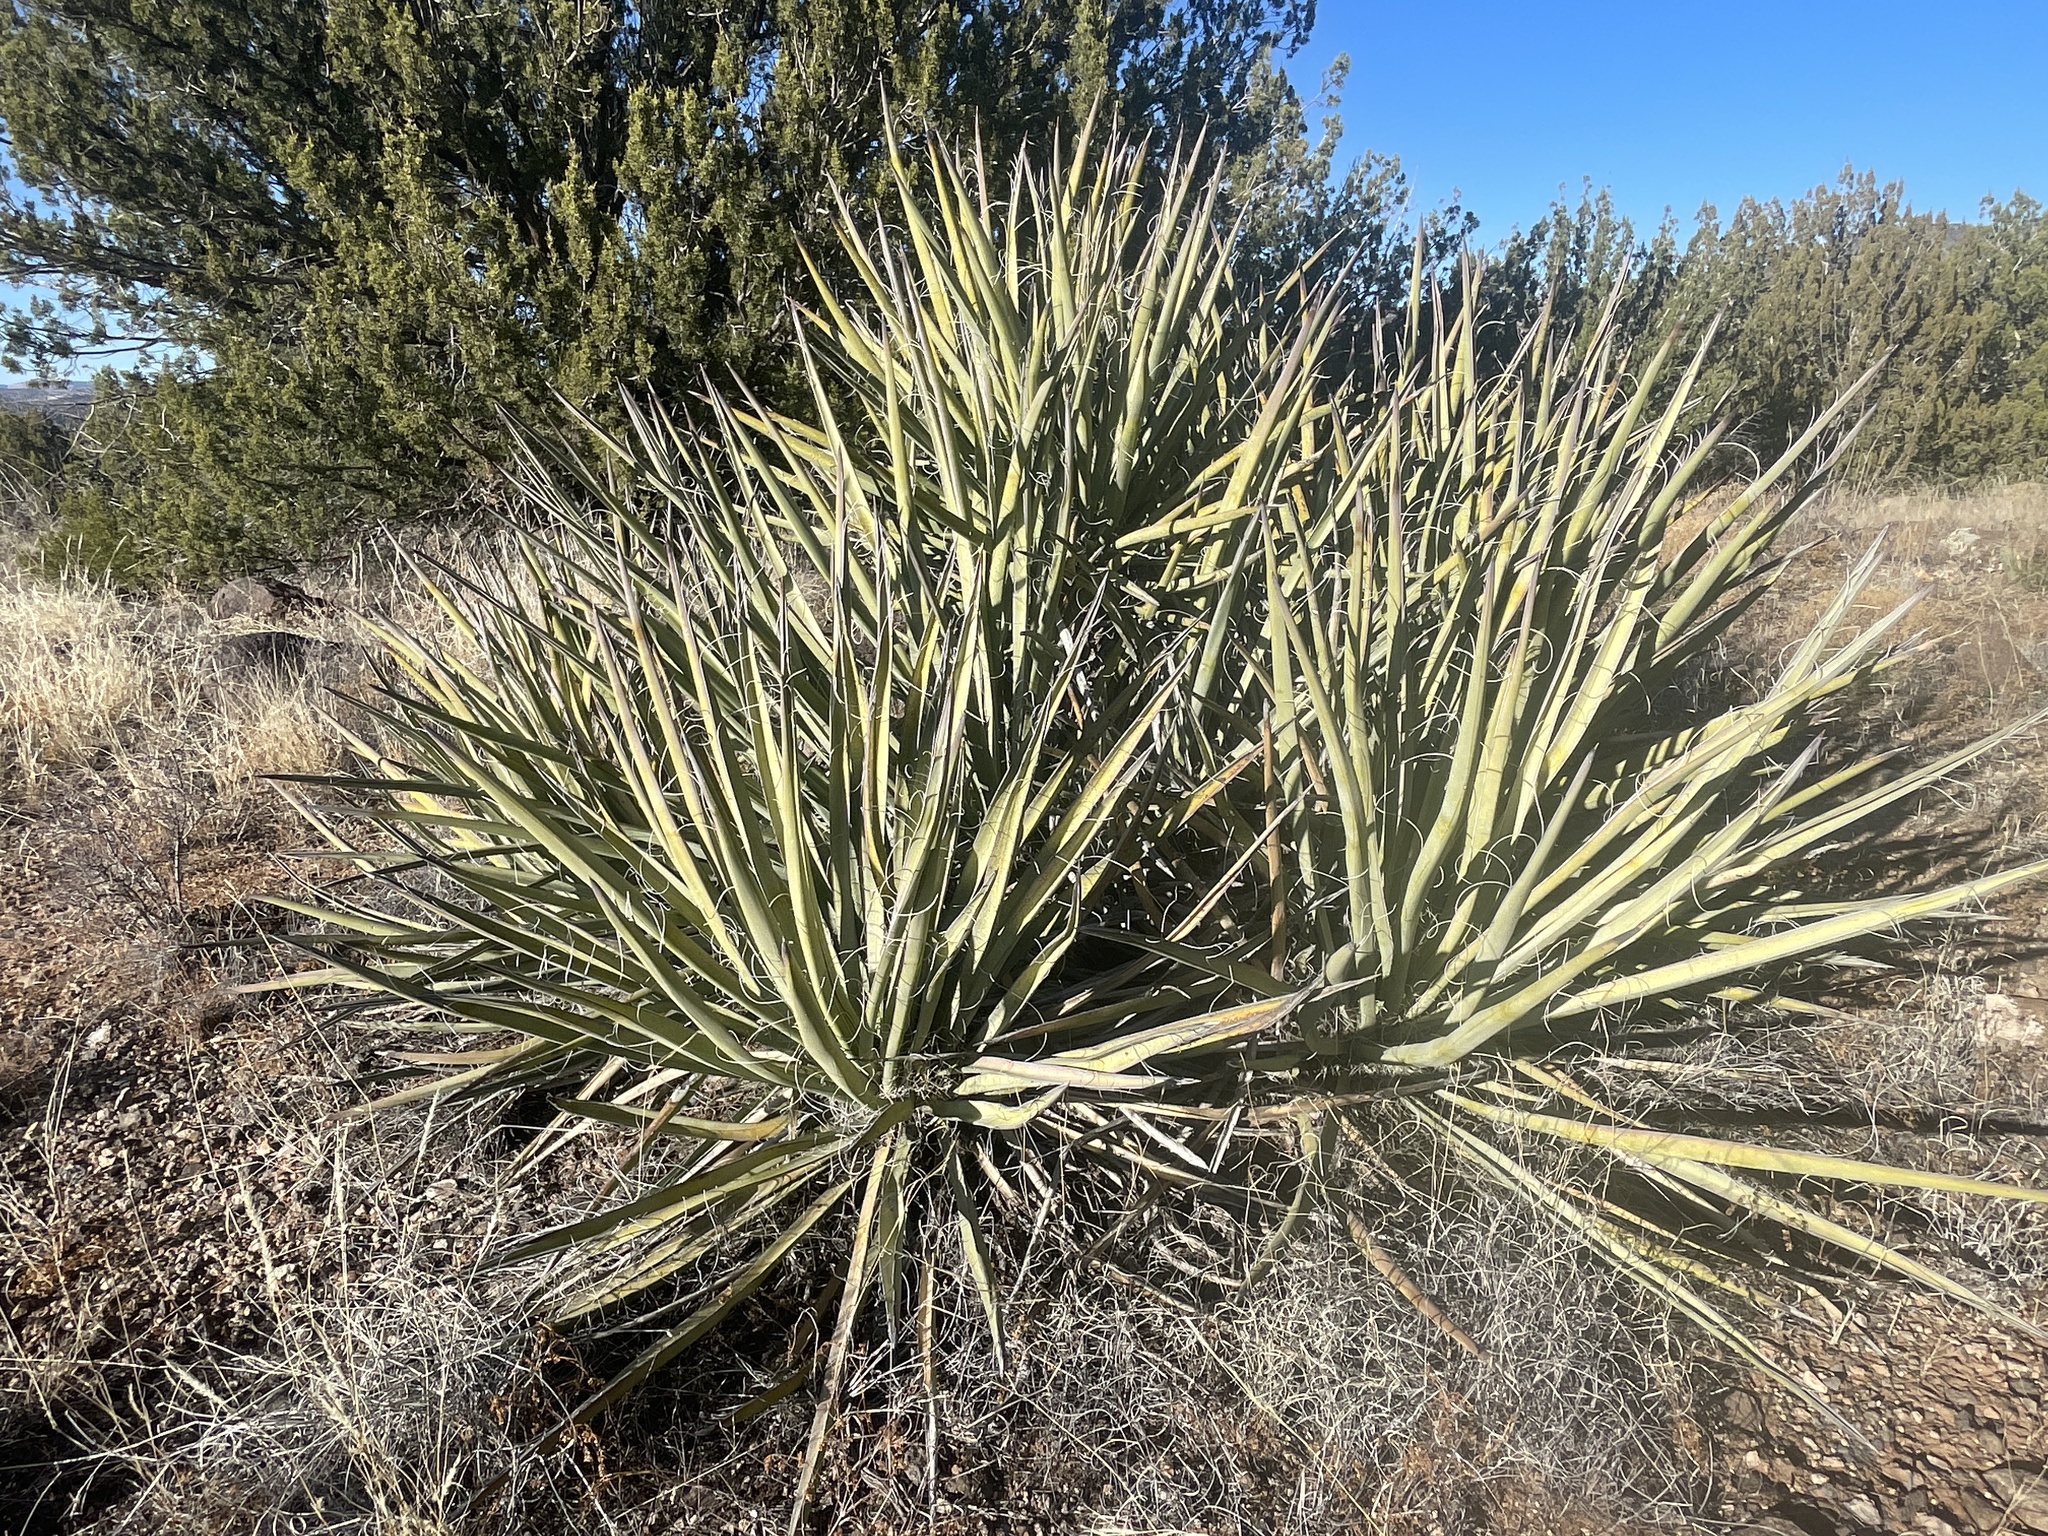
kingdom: Plantae
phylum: Tracheophyta
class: Liliopsida
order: Asparagales
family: Asparagaceae
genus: Yucca
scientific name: Yucca baccata
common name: Banana yucca
